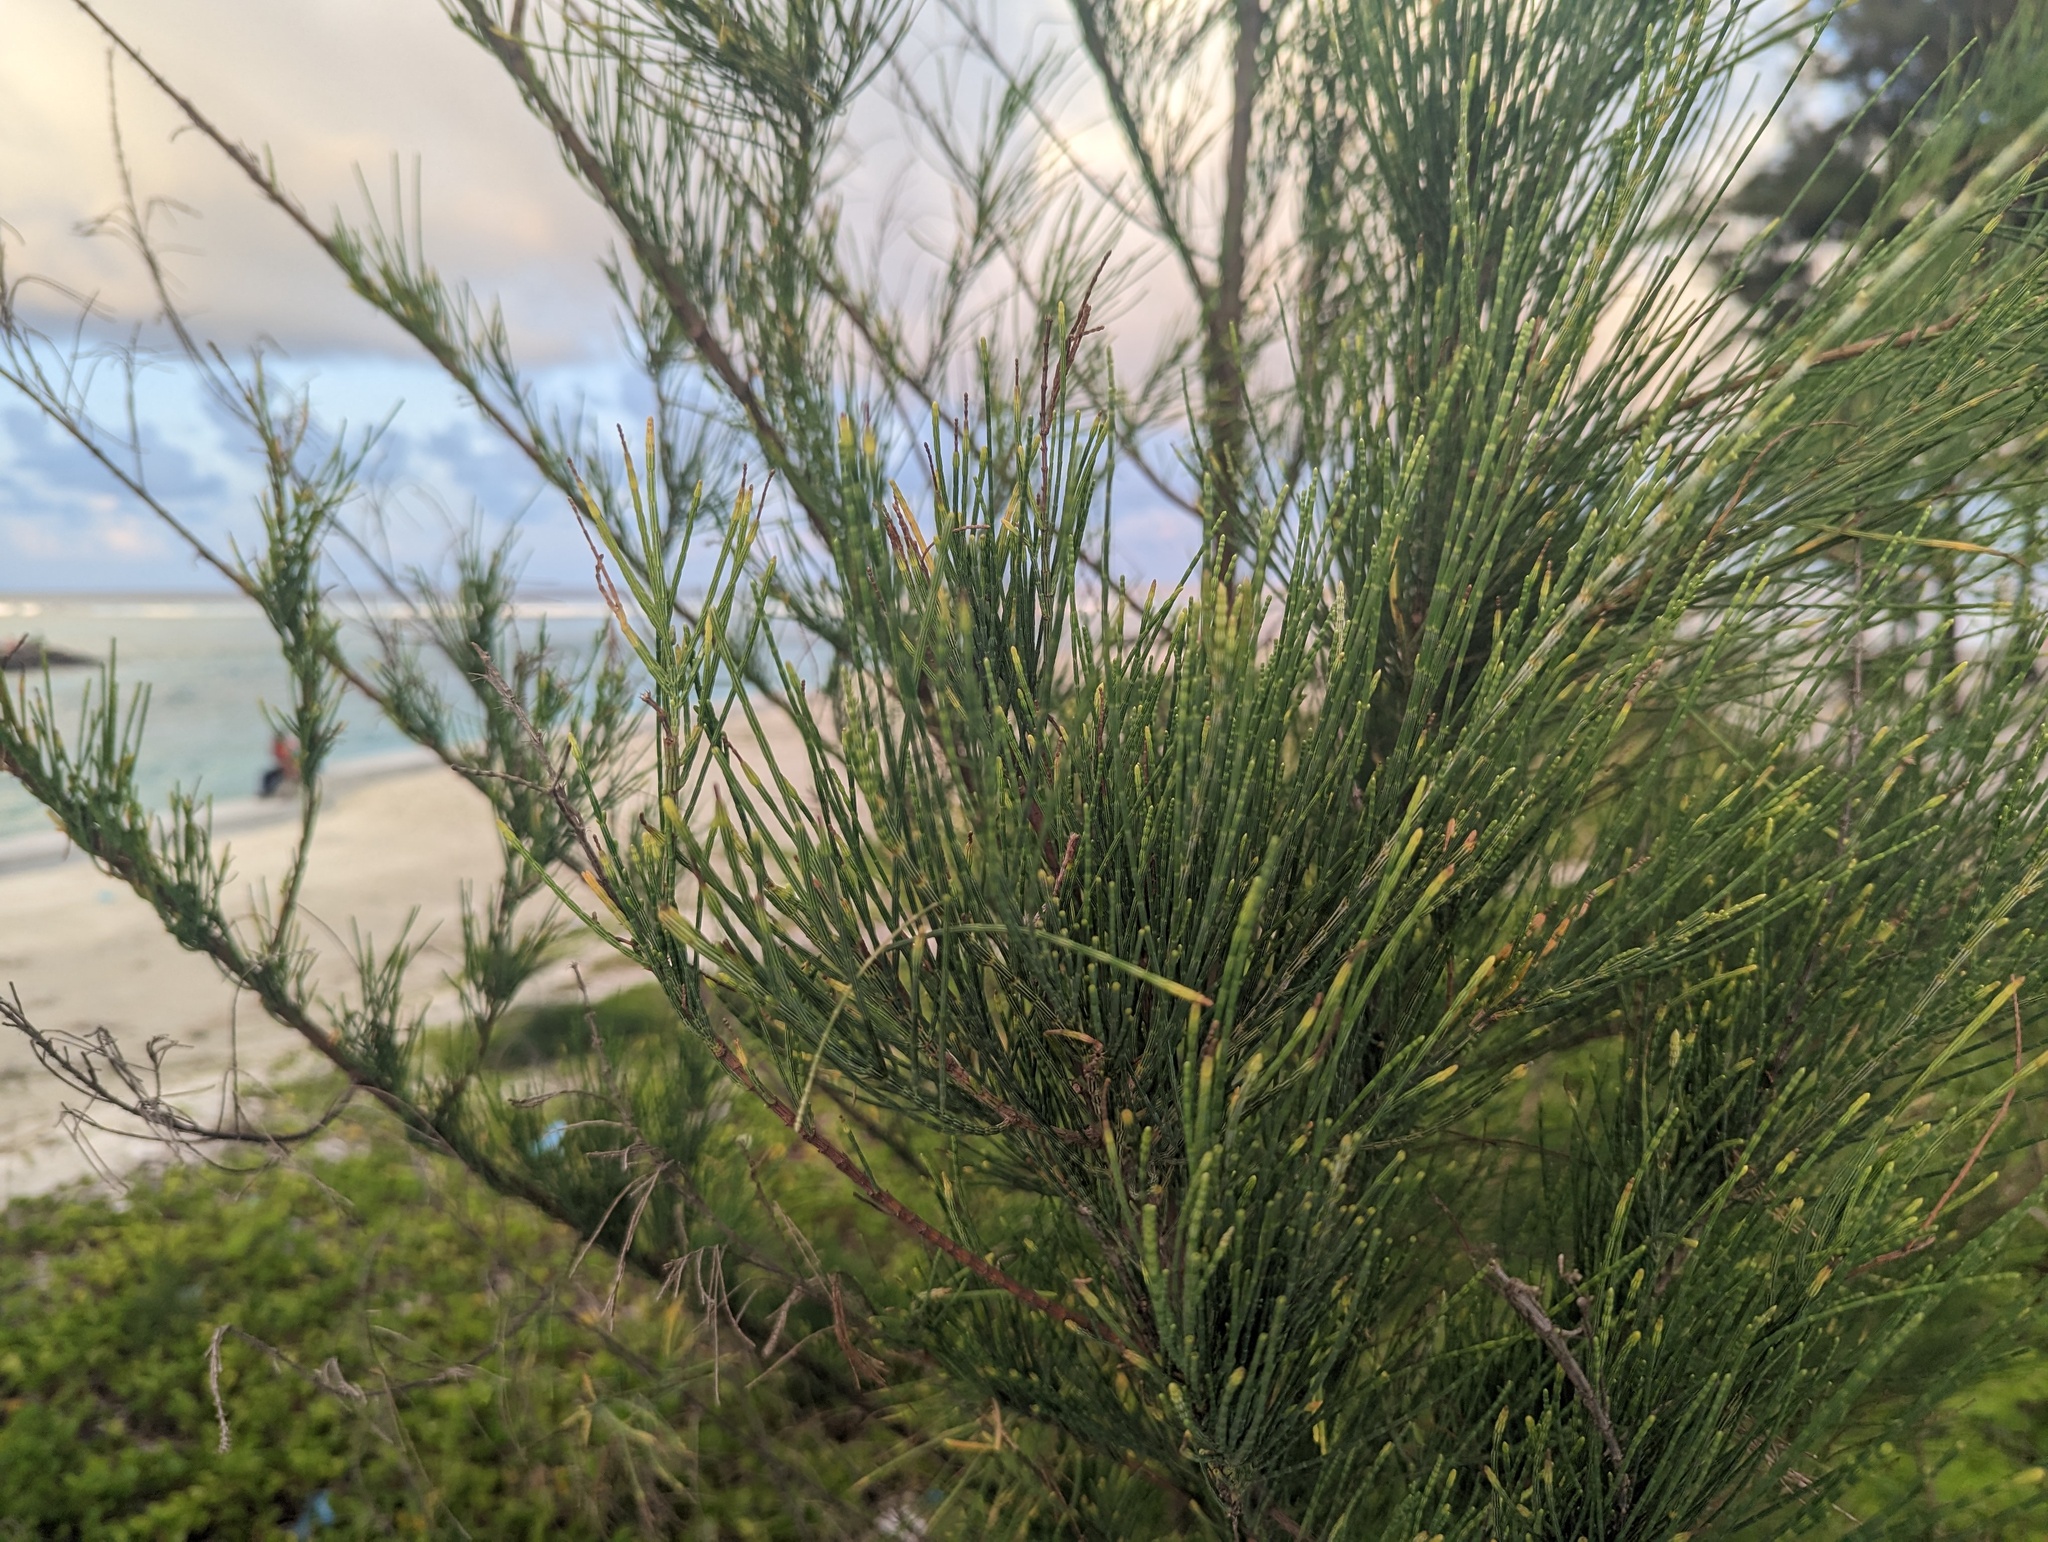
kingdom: Plantae
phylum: Tracheophyta
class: Magnoliopsida
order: Fagales
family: Casuarinaceae
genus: Casuarina
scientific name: Casuarina equisetifolia
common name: Beach sheoak
